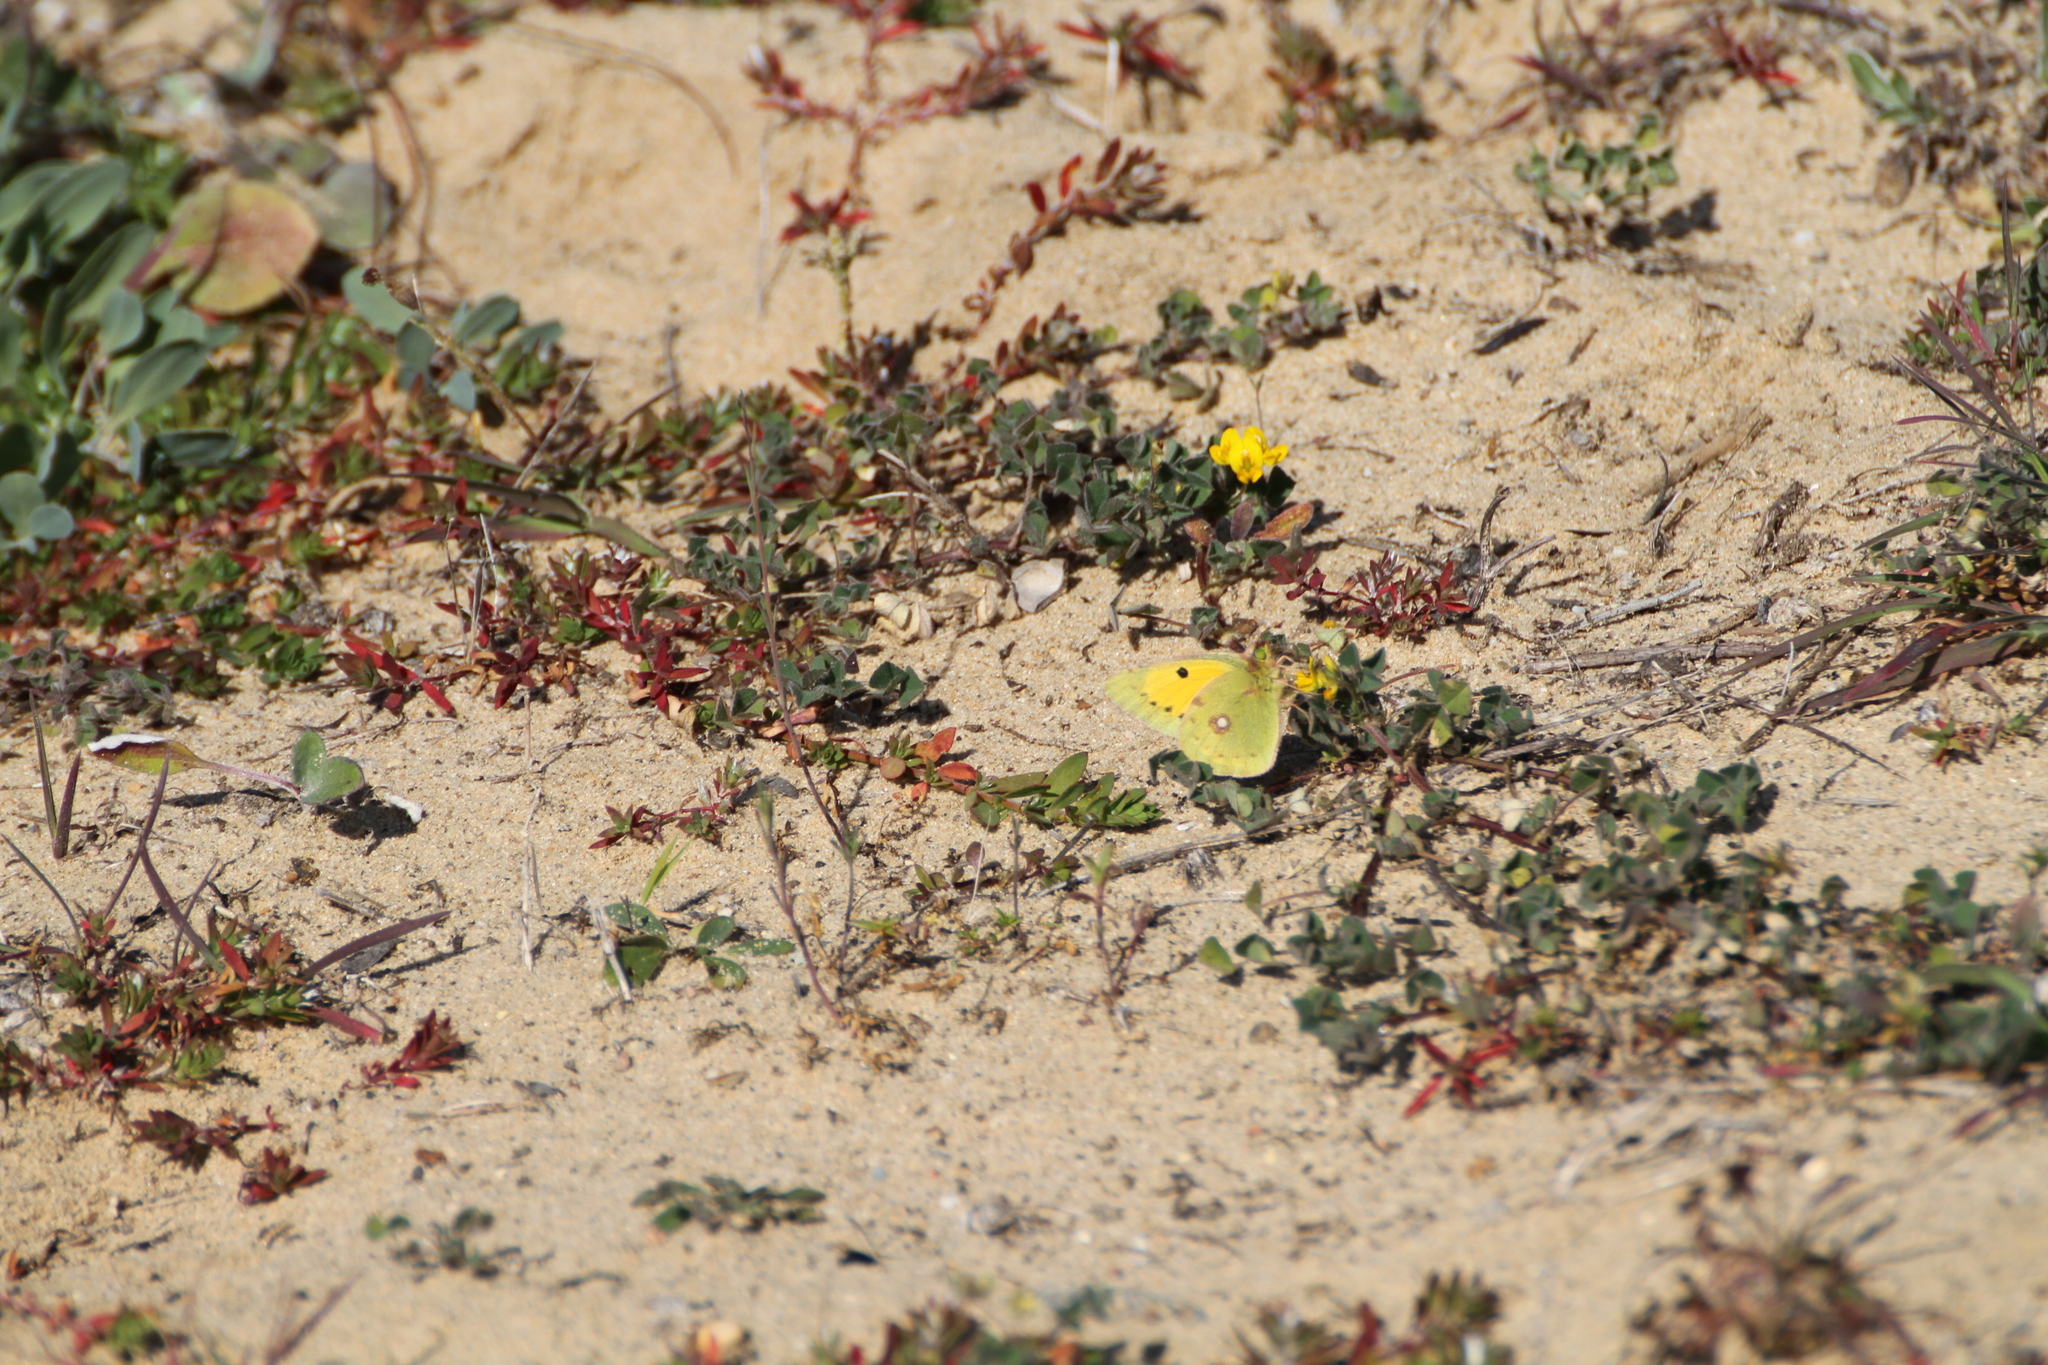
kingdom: Animalia
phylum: Arthropoda
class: Insecta
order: Lepidoptera
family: Pieridae
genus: Colias
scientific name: Colias croceus
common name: Clouded yellow
